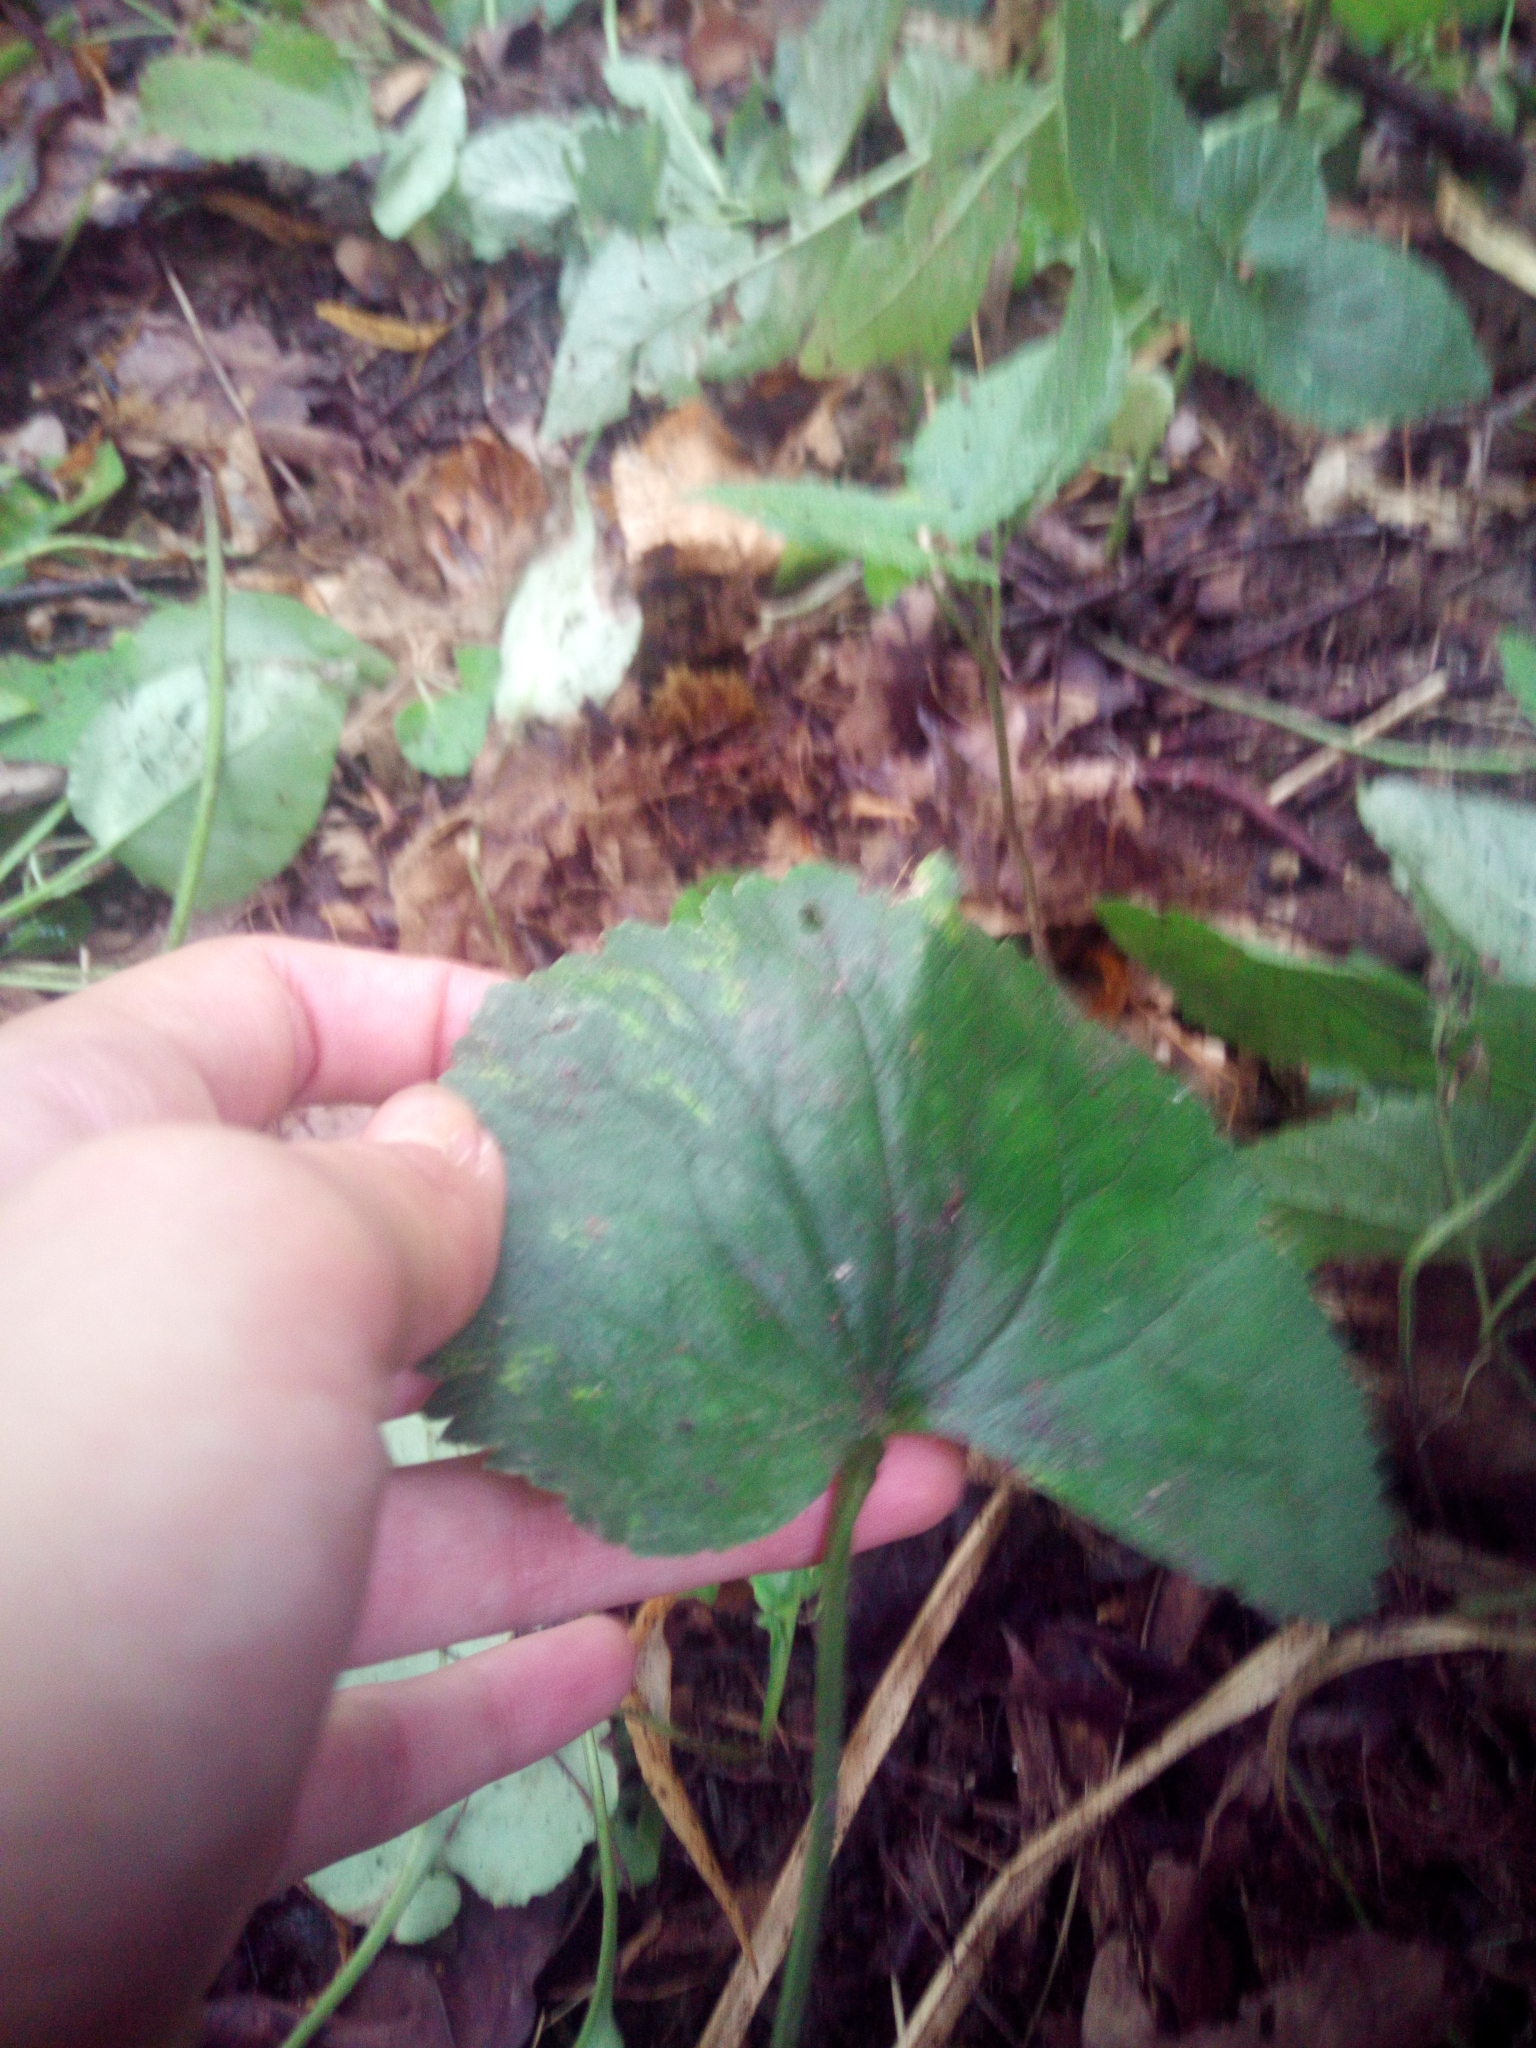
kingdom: Plantae
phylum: Tracheophyta
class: Magnoliopsida
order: Ranunculales
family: Ranunculaceae
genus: Ranunculus
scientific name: Ranunculus cassubicus
